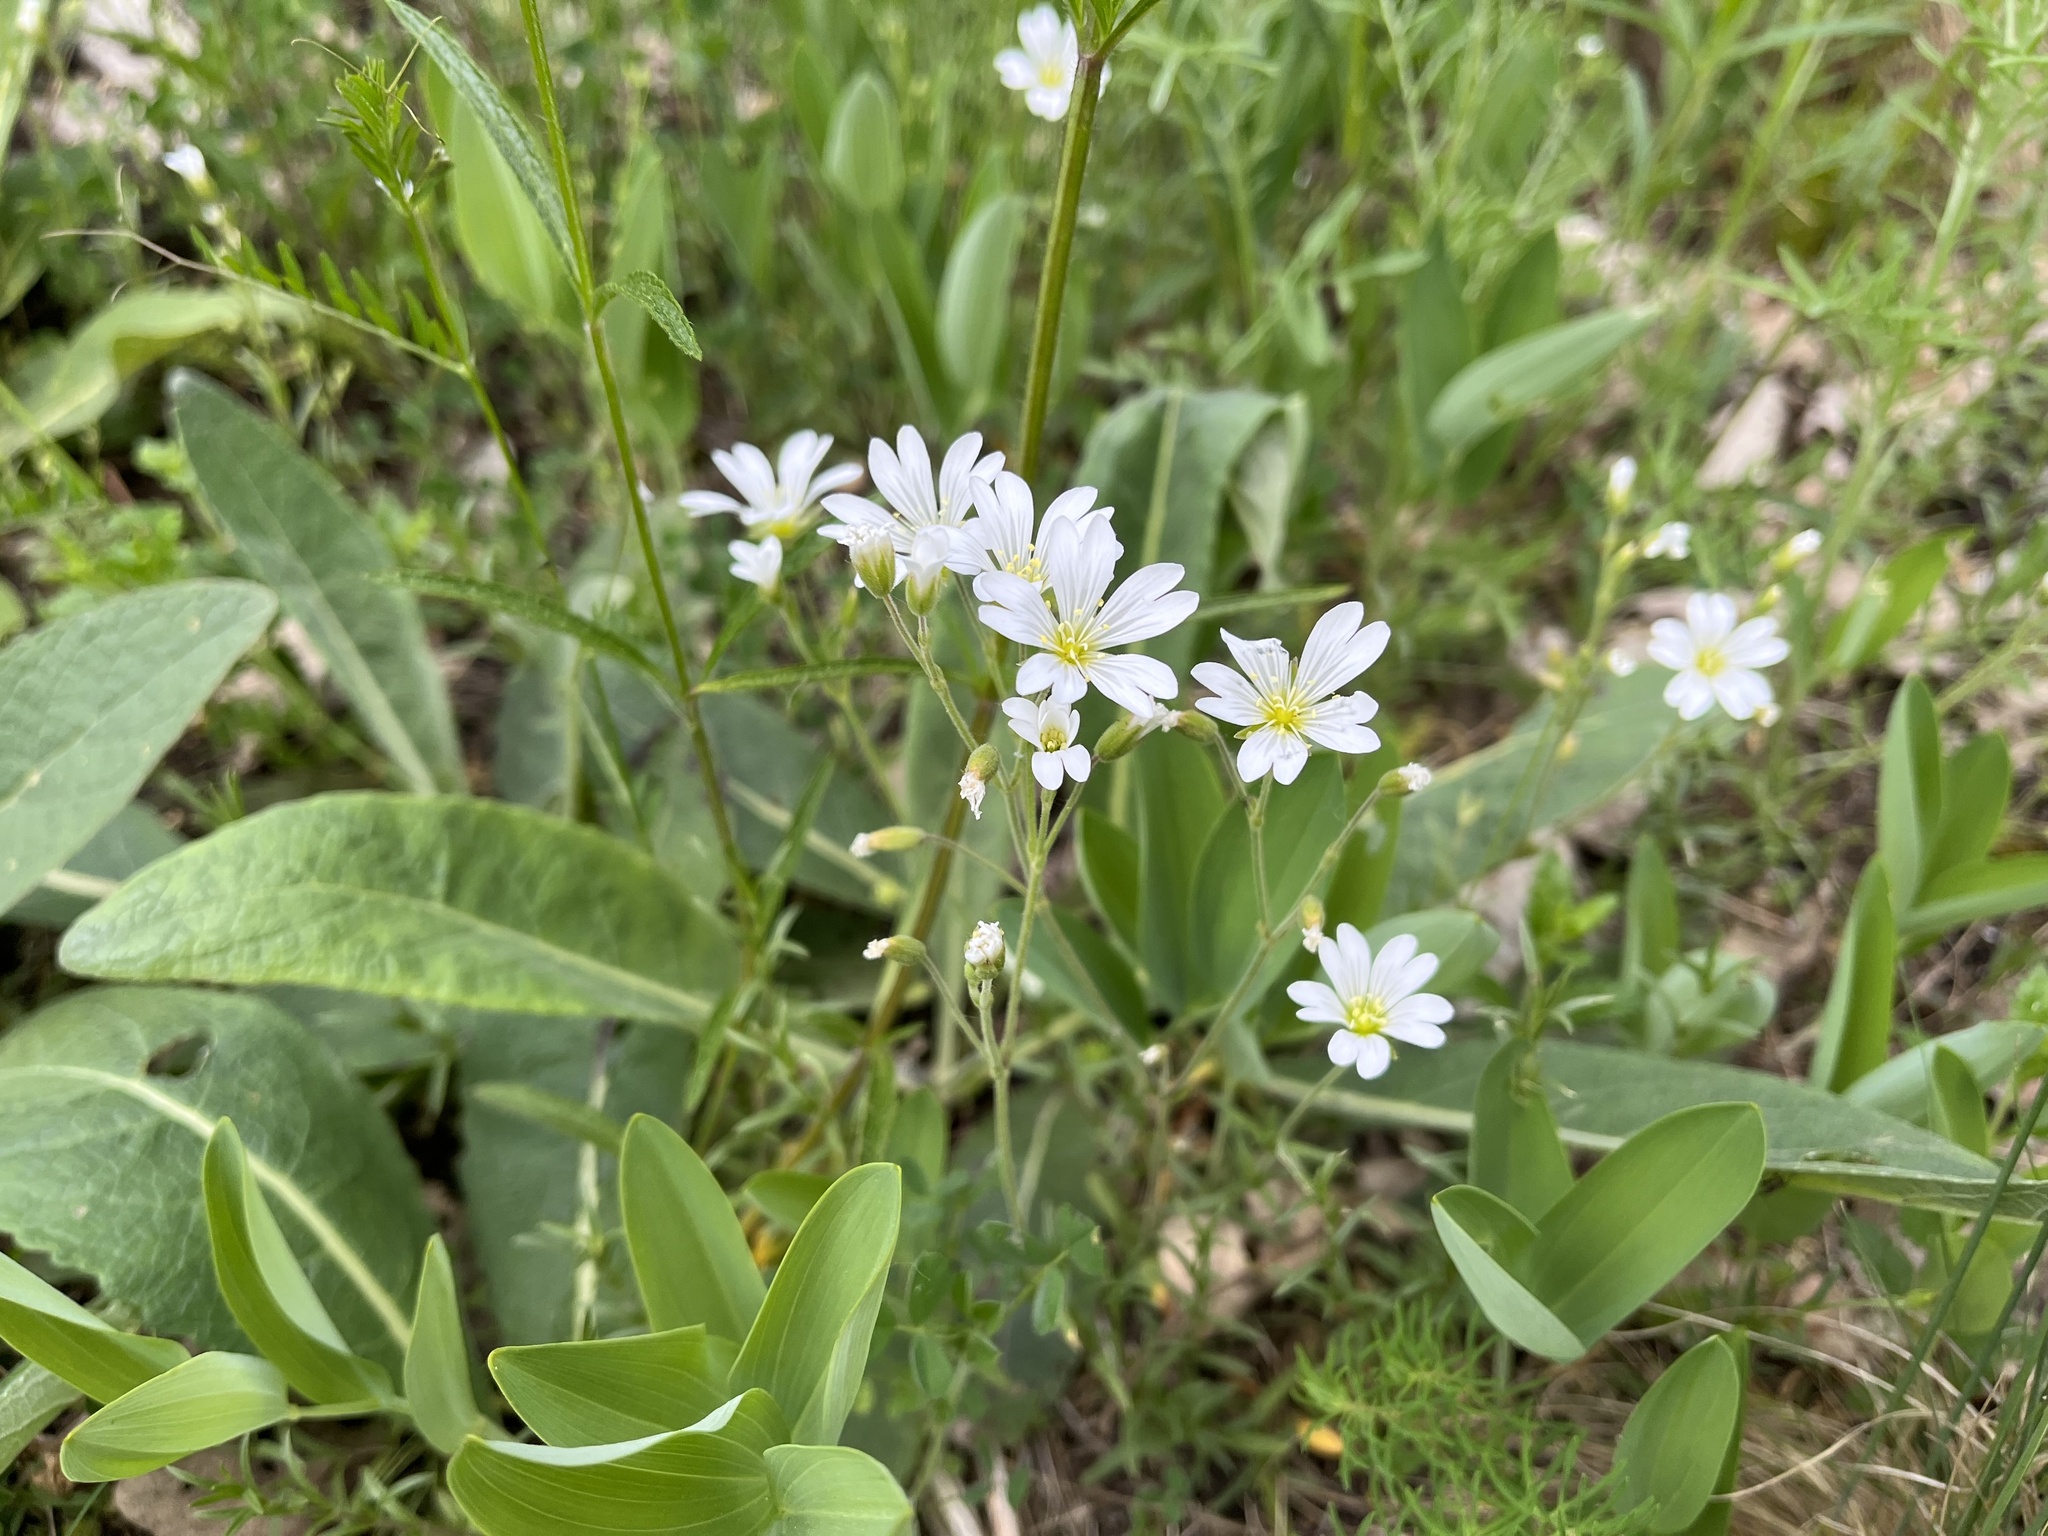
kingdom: Plantae
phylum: Tracheophyta
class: Magnoliopsida
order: Caryophyllales
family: Caryophyllaceae
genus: Cerastium
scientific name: Cerastium arvense
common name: Field mouse-ear
